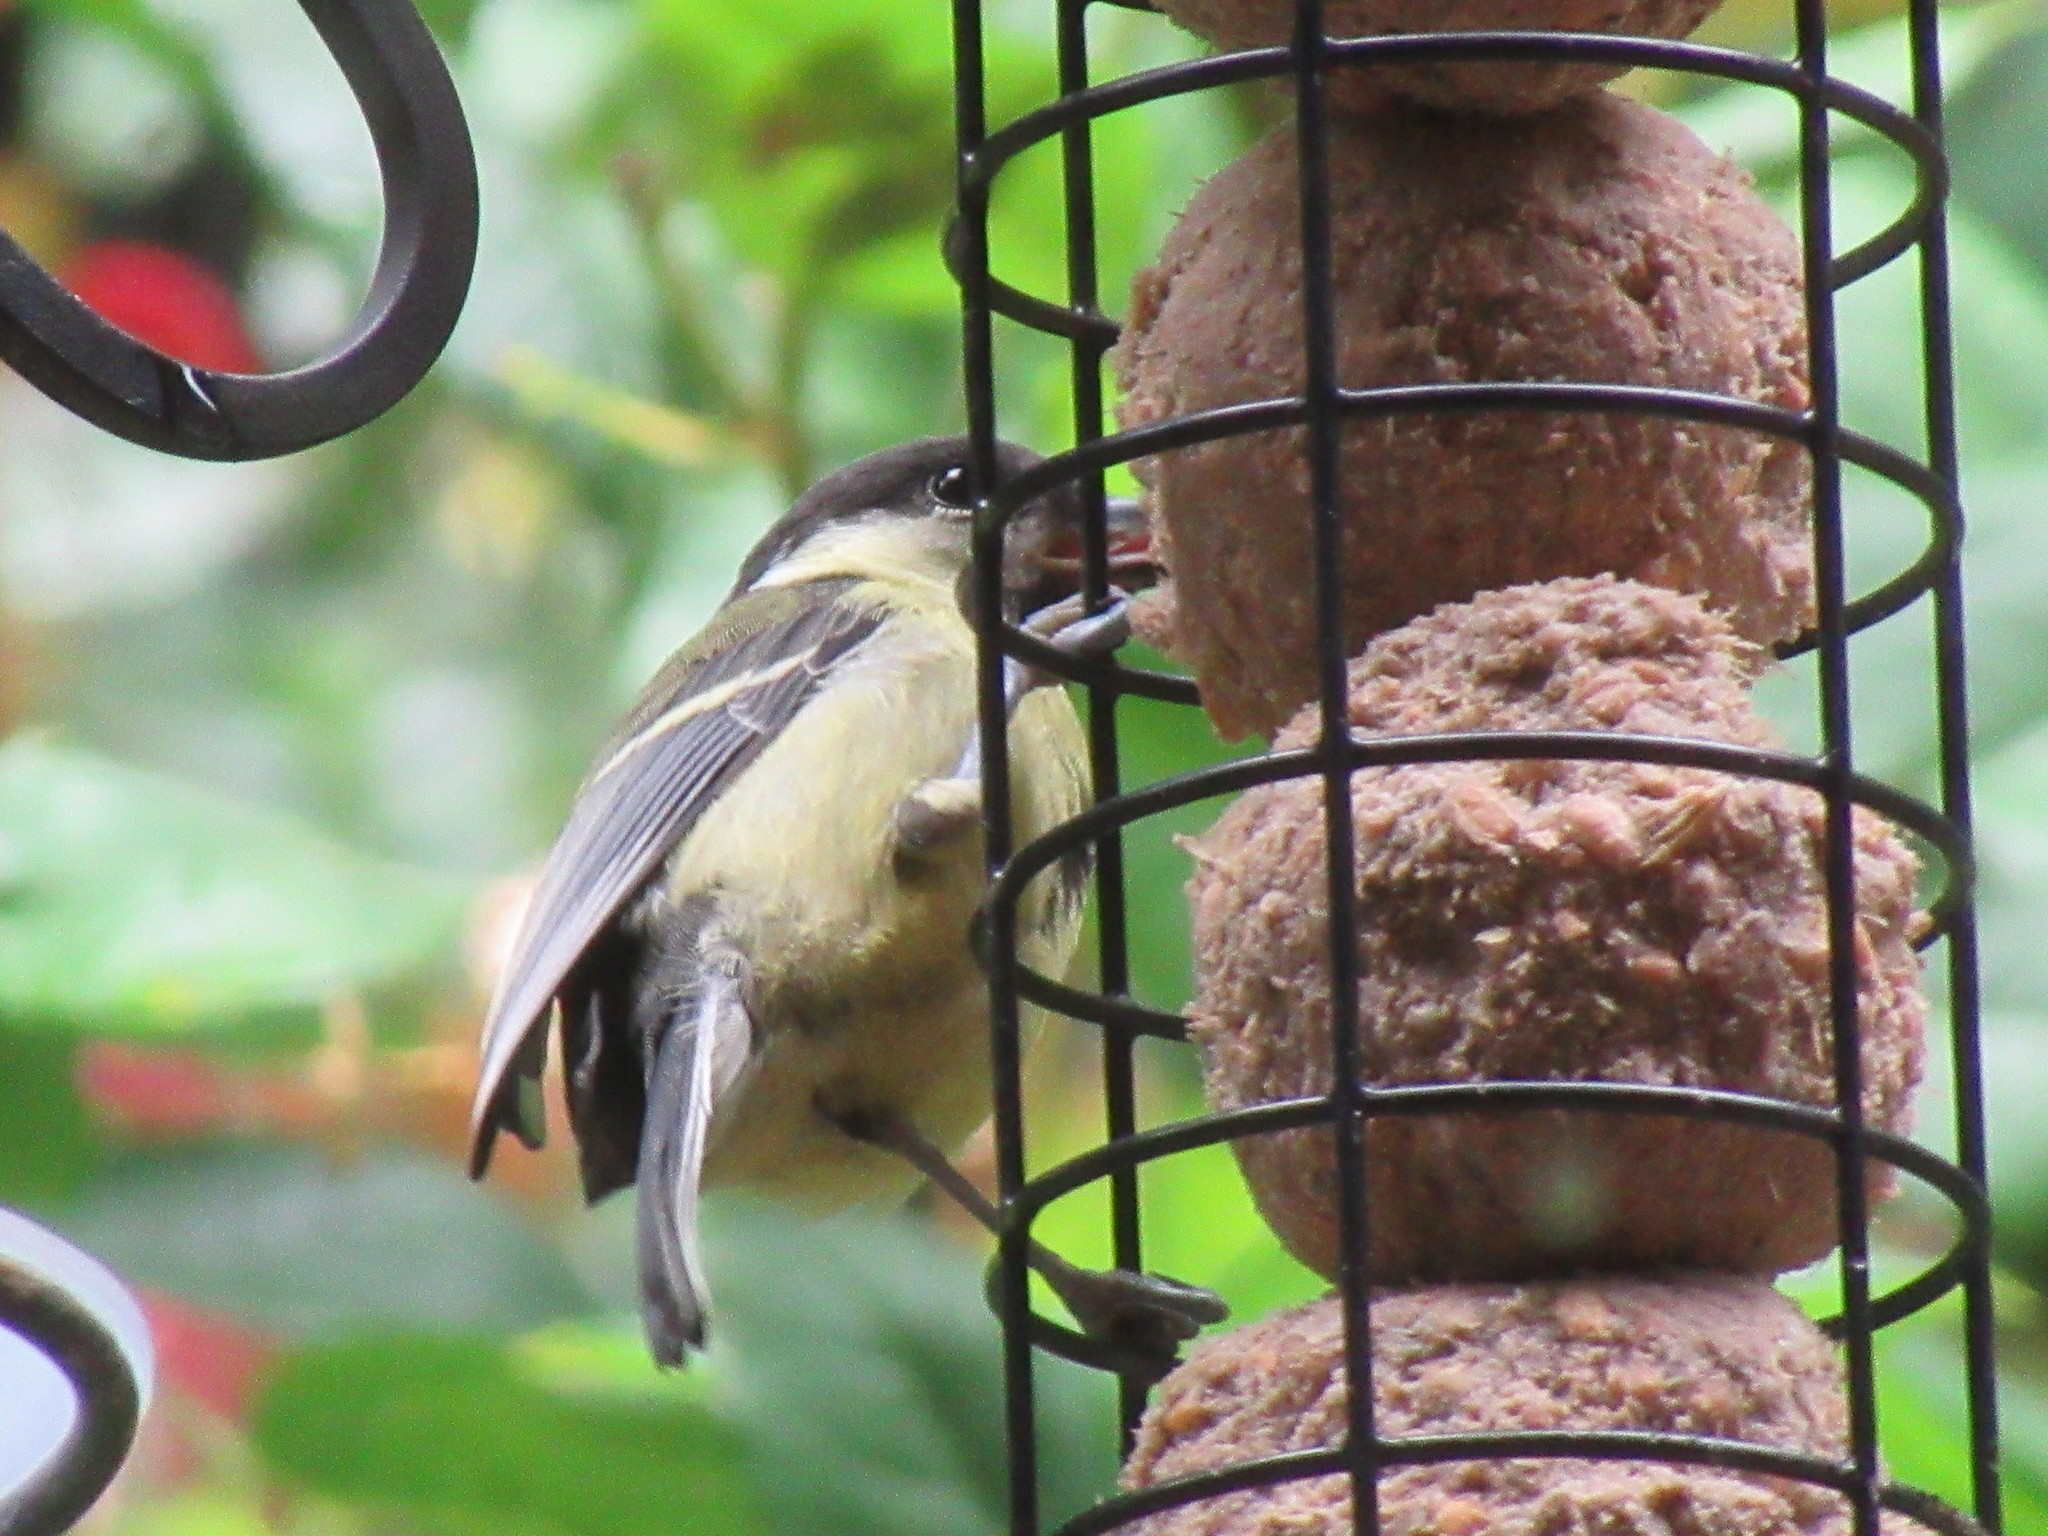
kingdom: Animalia
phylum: Chordata
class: Aves
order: Passeriformes
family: Paridae
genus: Parus
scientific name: Parus major
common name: Great tit
